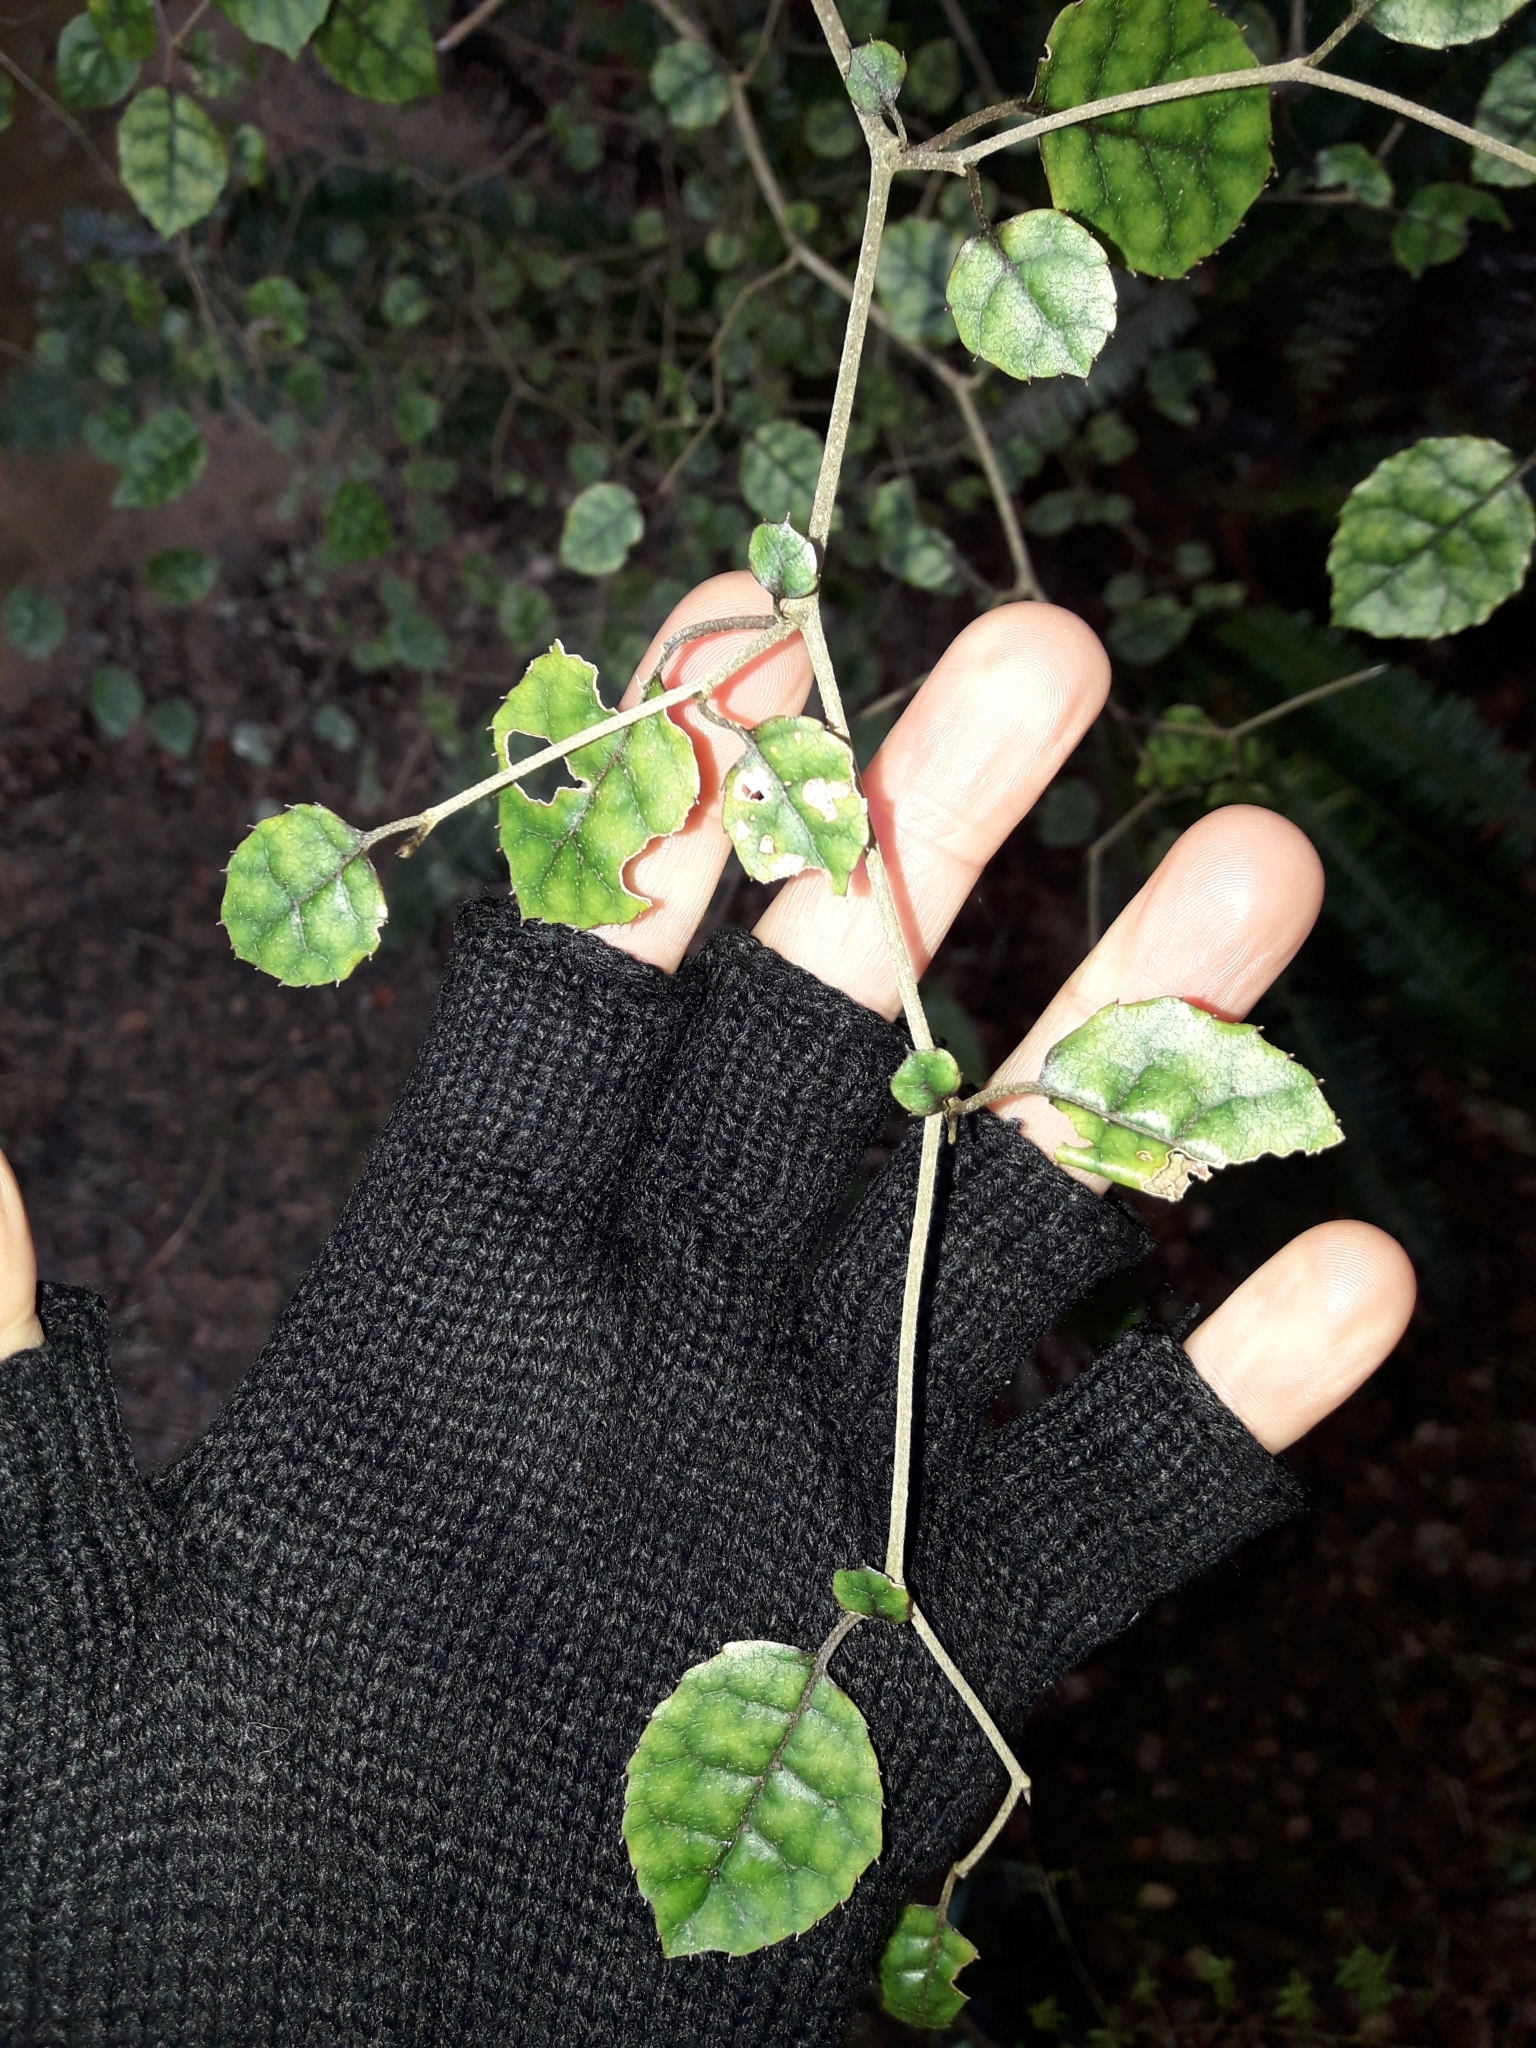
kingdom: Plantae
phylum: Tracheophyta
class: Magnoliopsida
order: Asterales
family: Rousseaceae
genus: Carpodetus
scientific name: Carpodetus serratus
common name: White mapau
